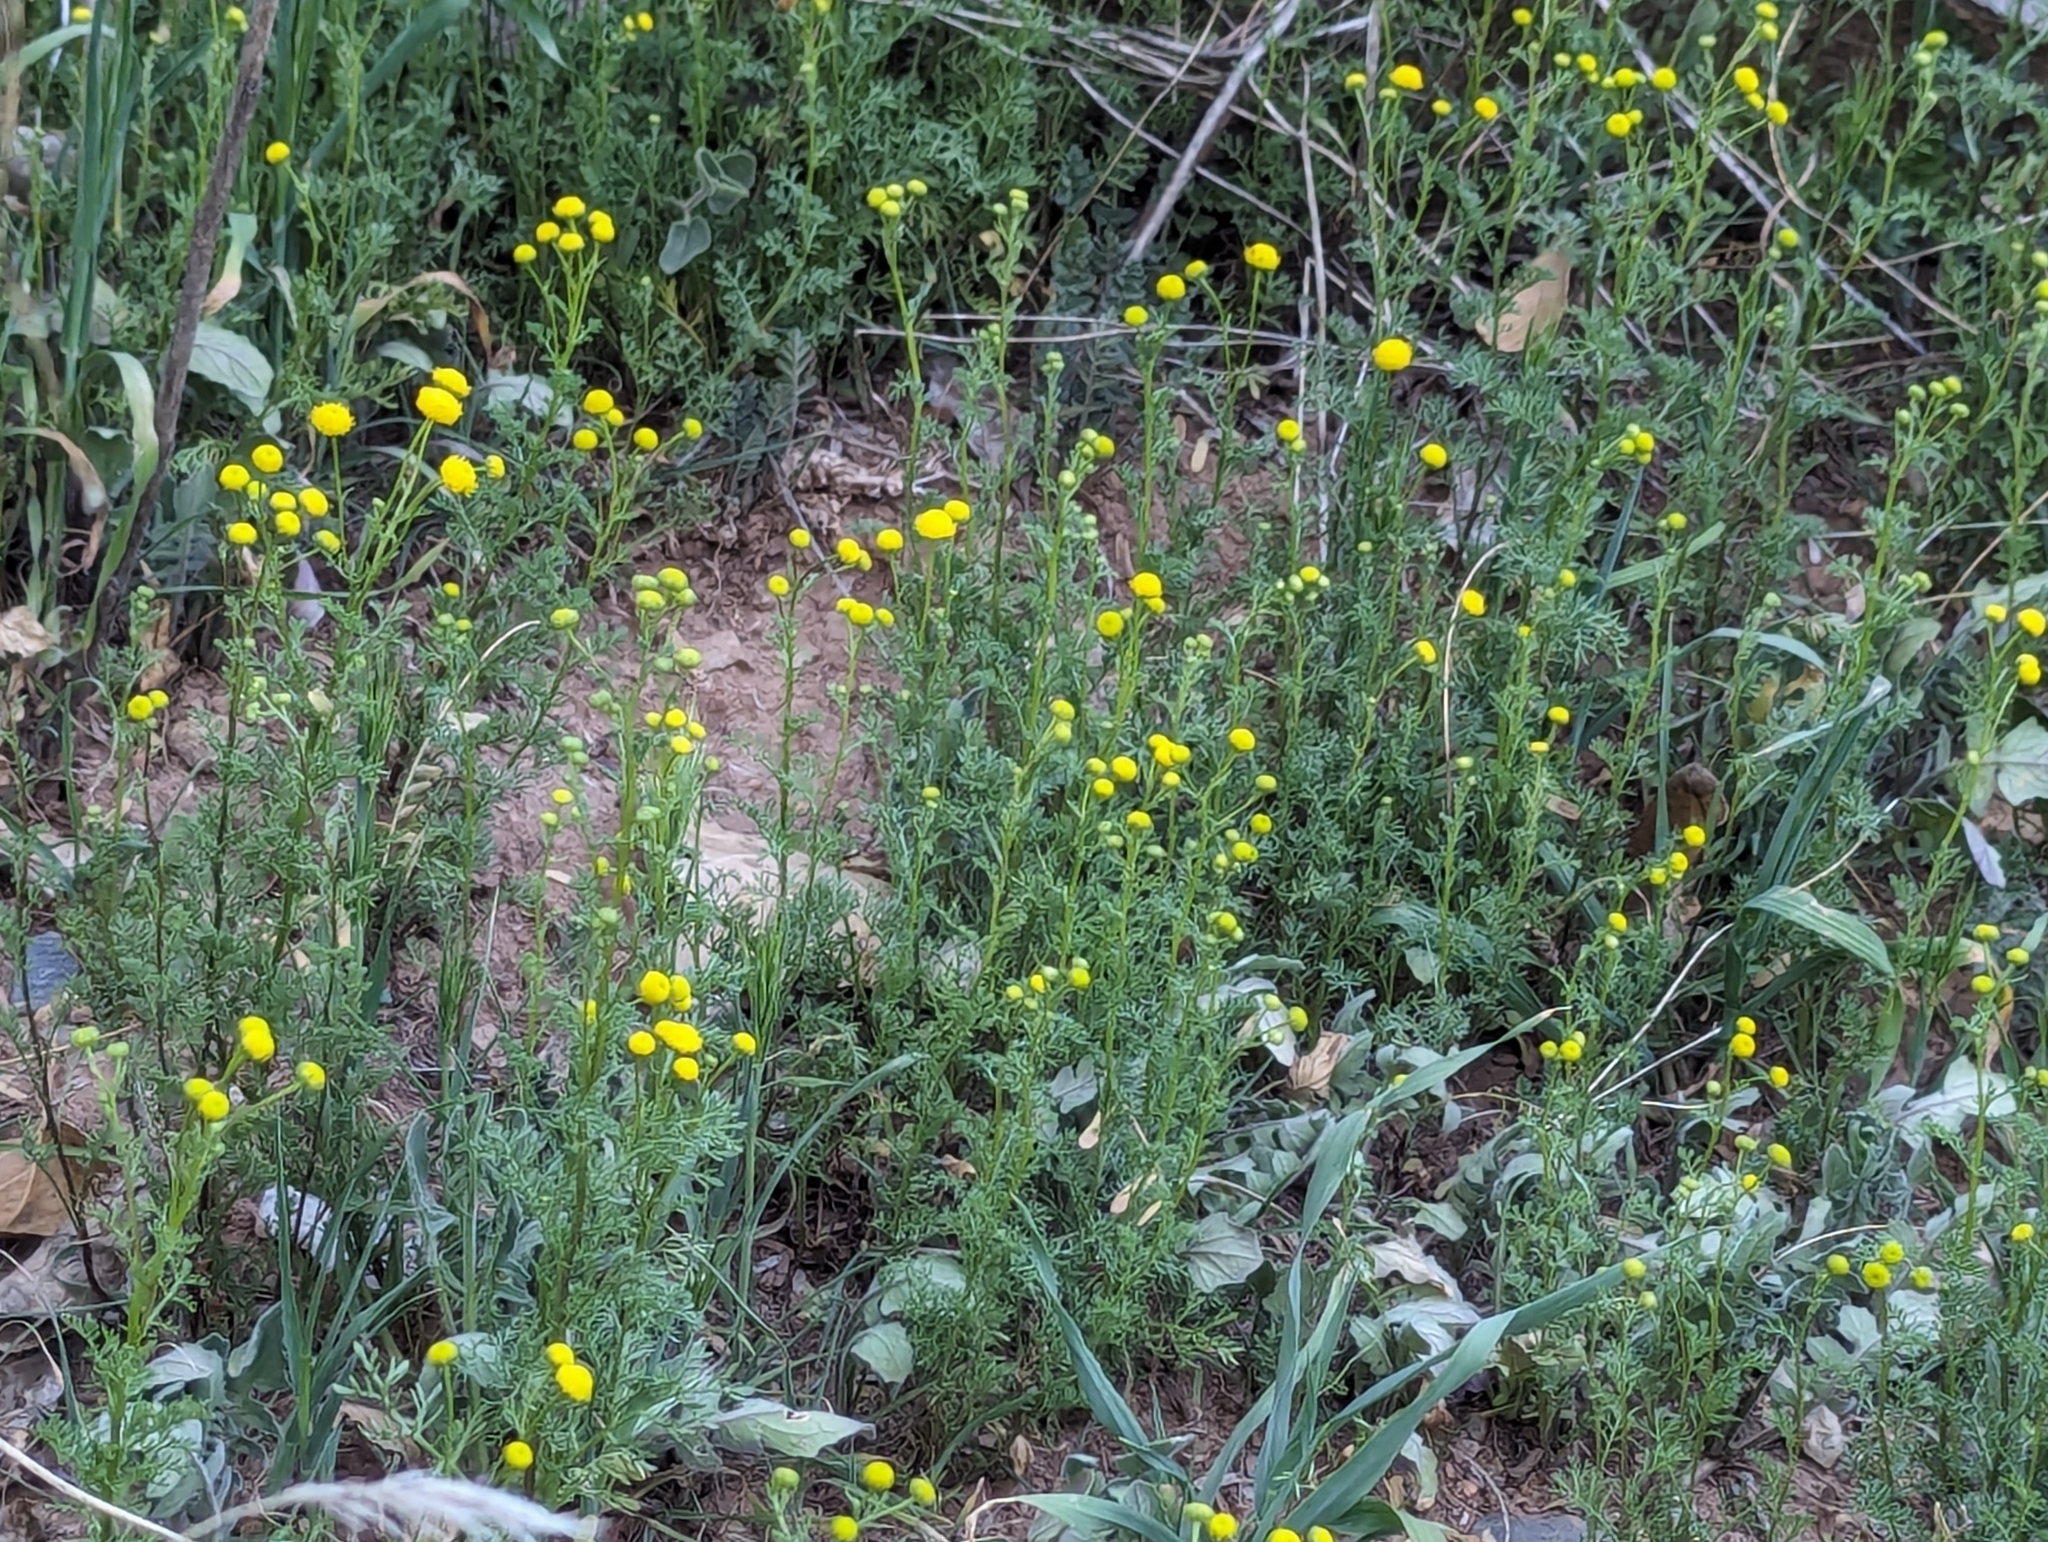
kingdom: Plantae
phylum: Tracheophyta
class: Magnoliopsida
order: Asterales
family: Asteraceae
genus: Oncosiphon
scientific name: Oncosiphon pilulifer
